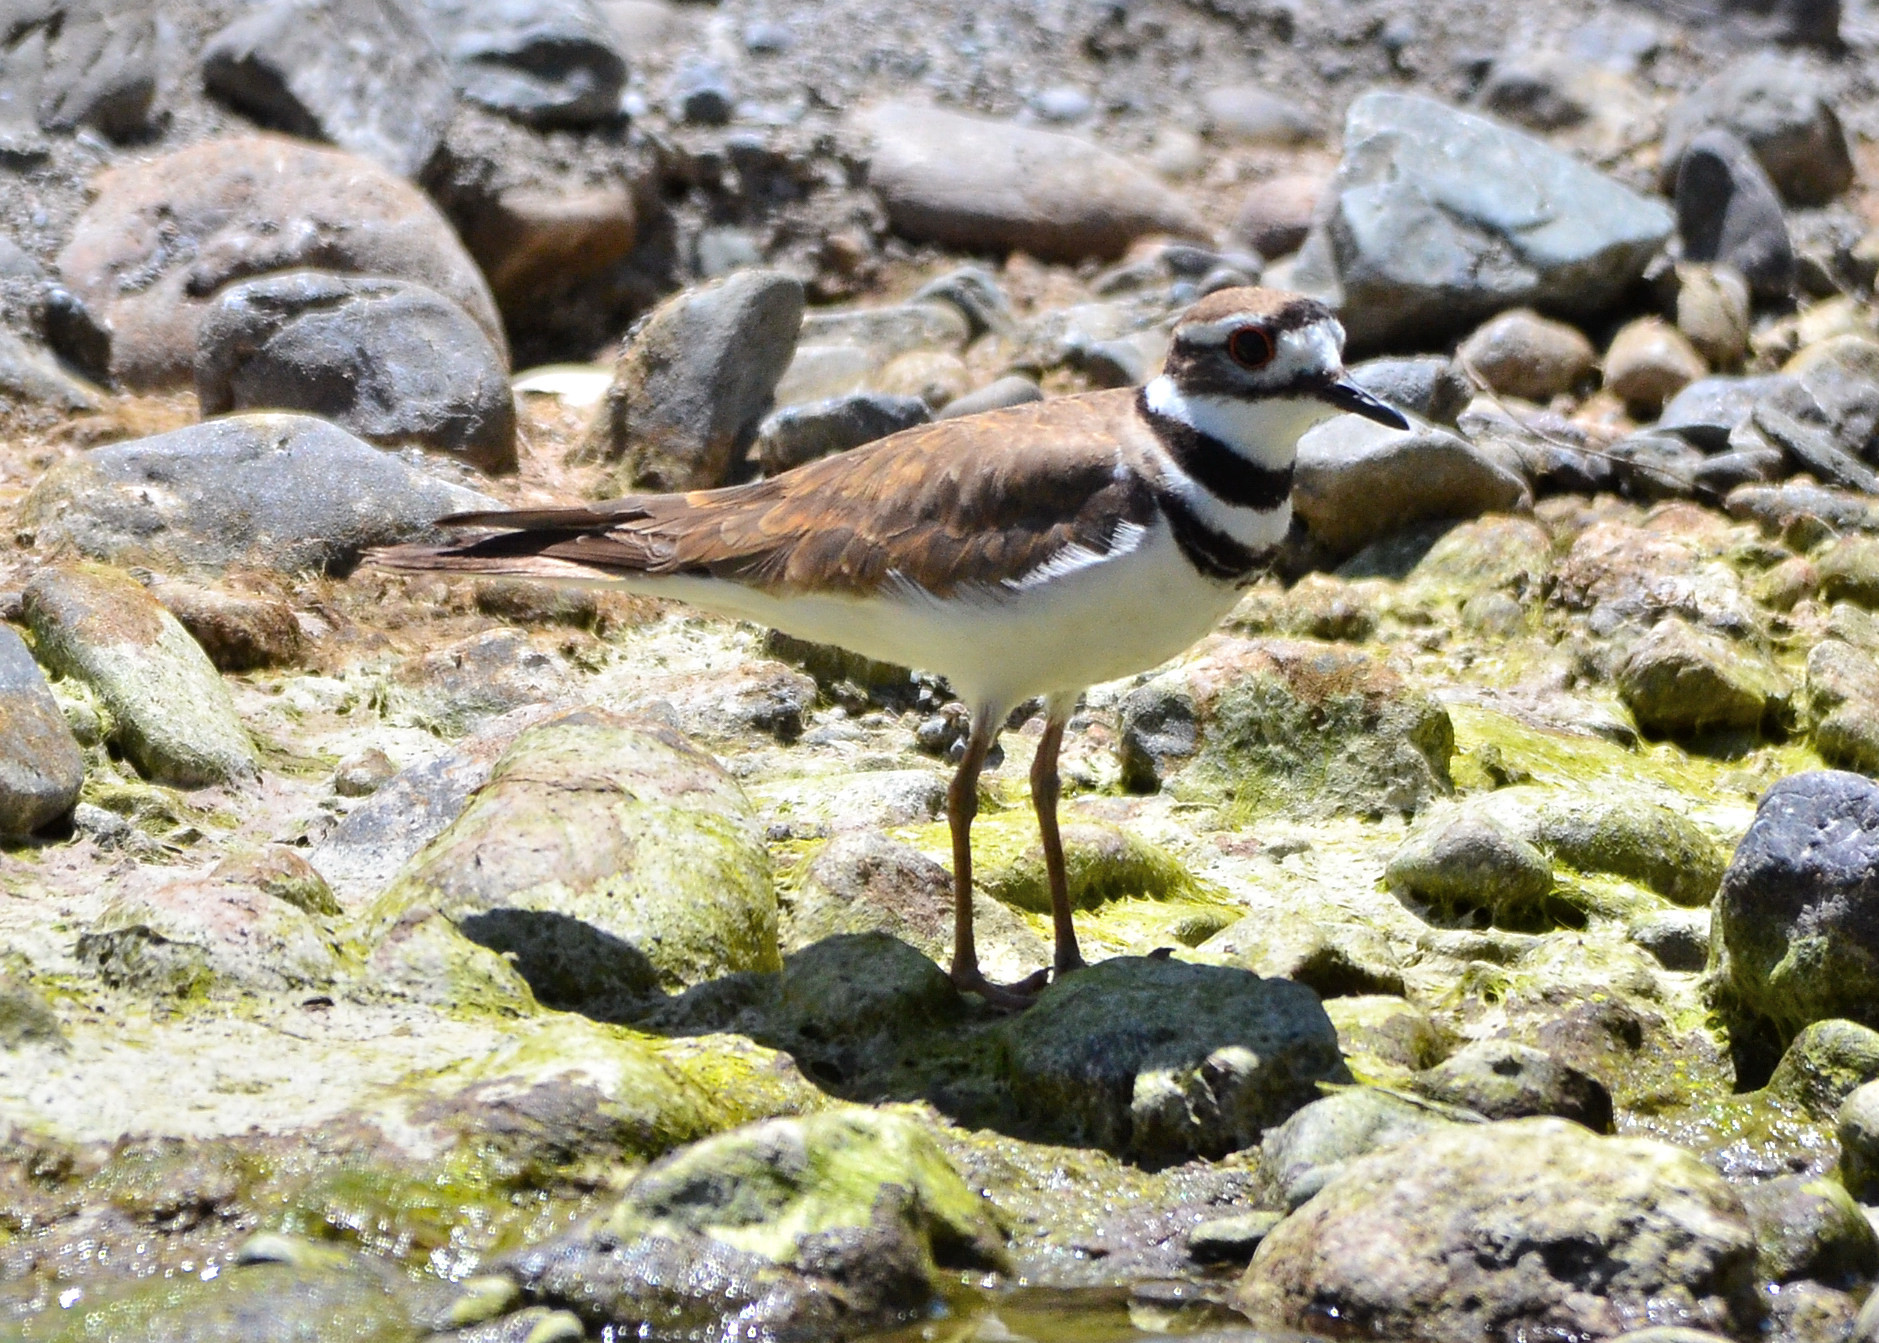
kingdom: Animalia
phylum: Chordata
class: Aves
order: Charadriiformes
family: Charadriidae
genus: Charadrius
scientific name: Charadrius vociferus
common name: Killdeer
